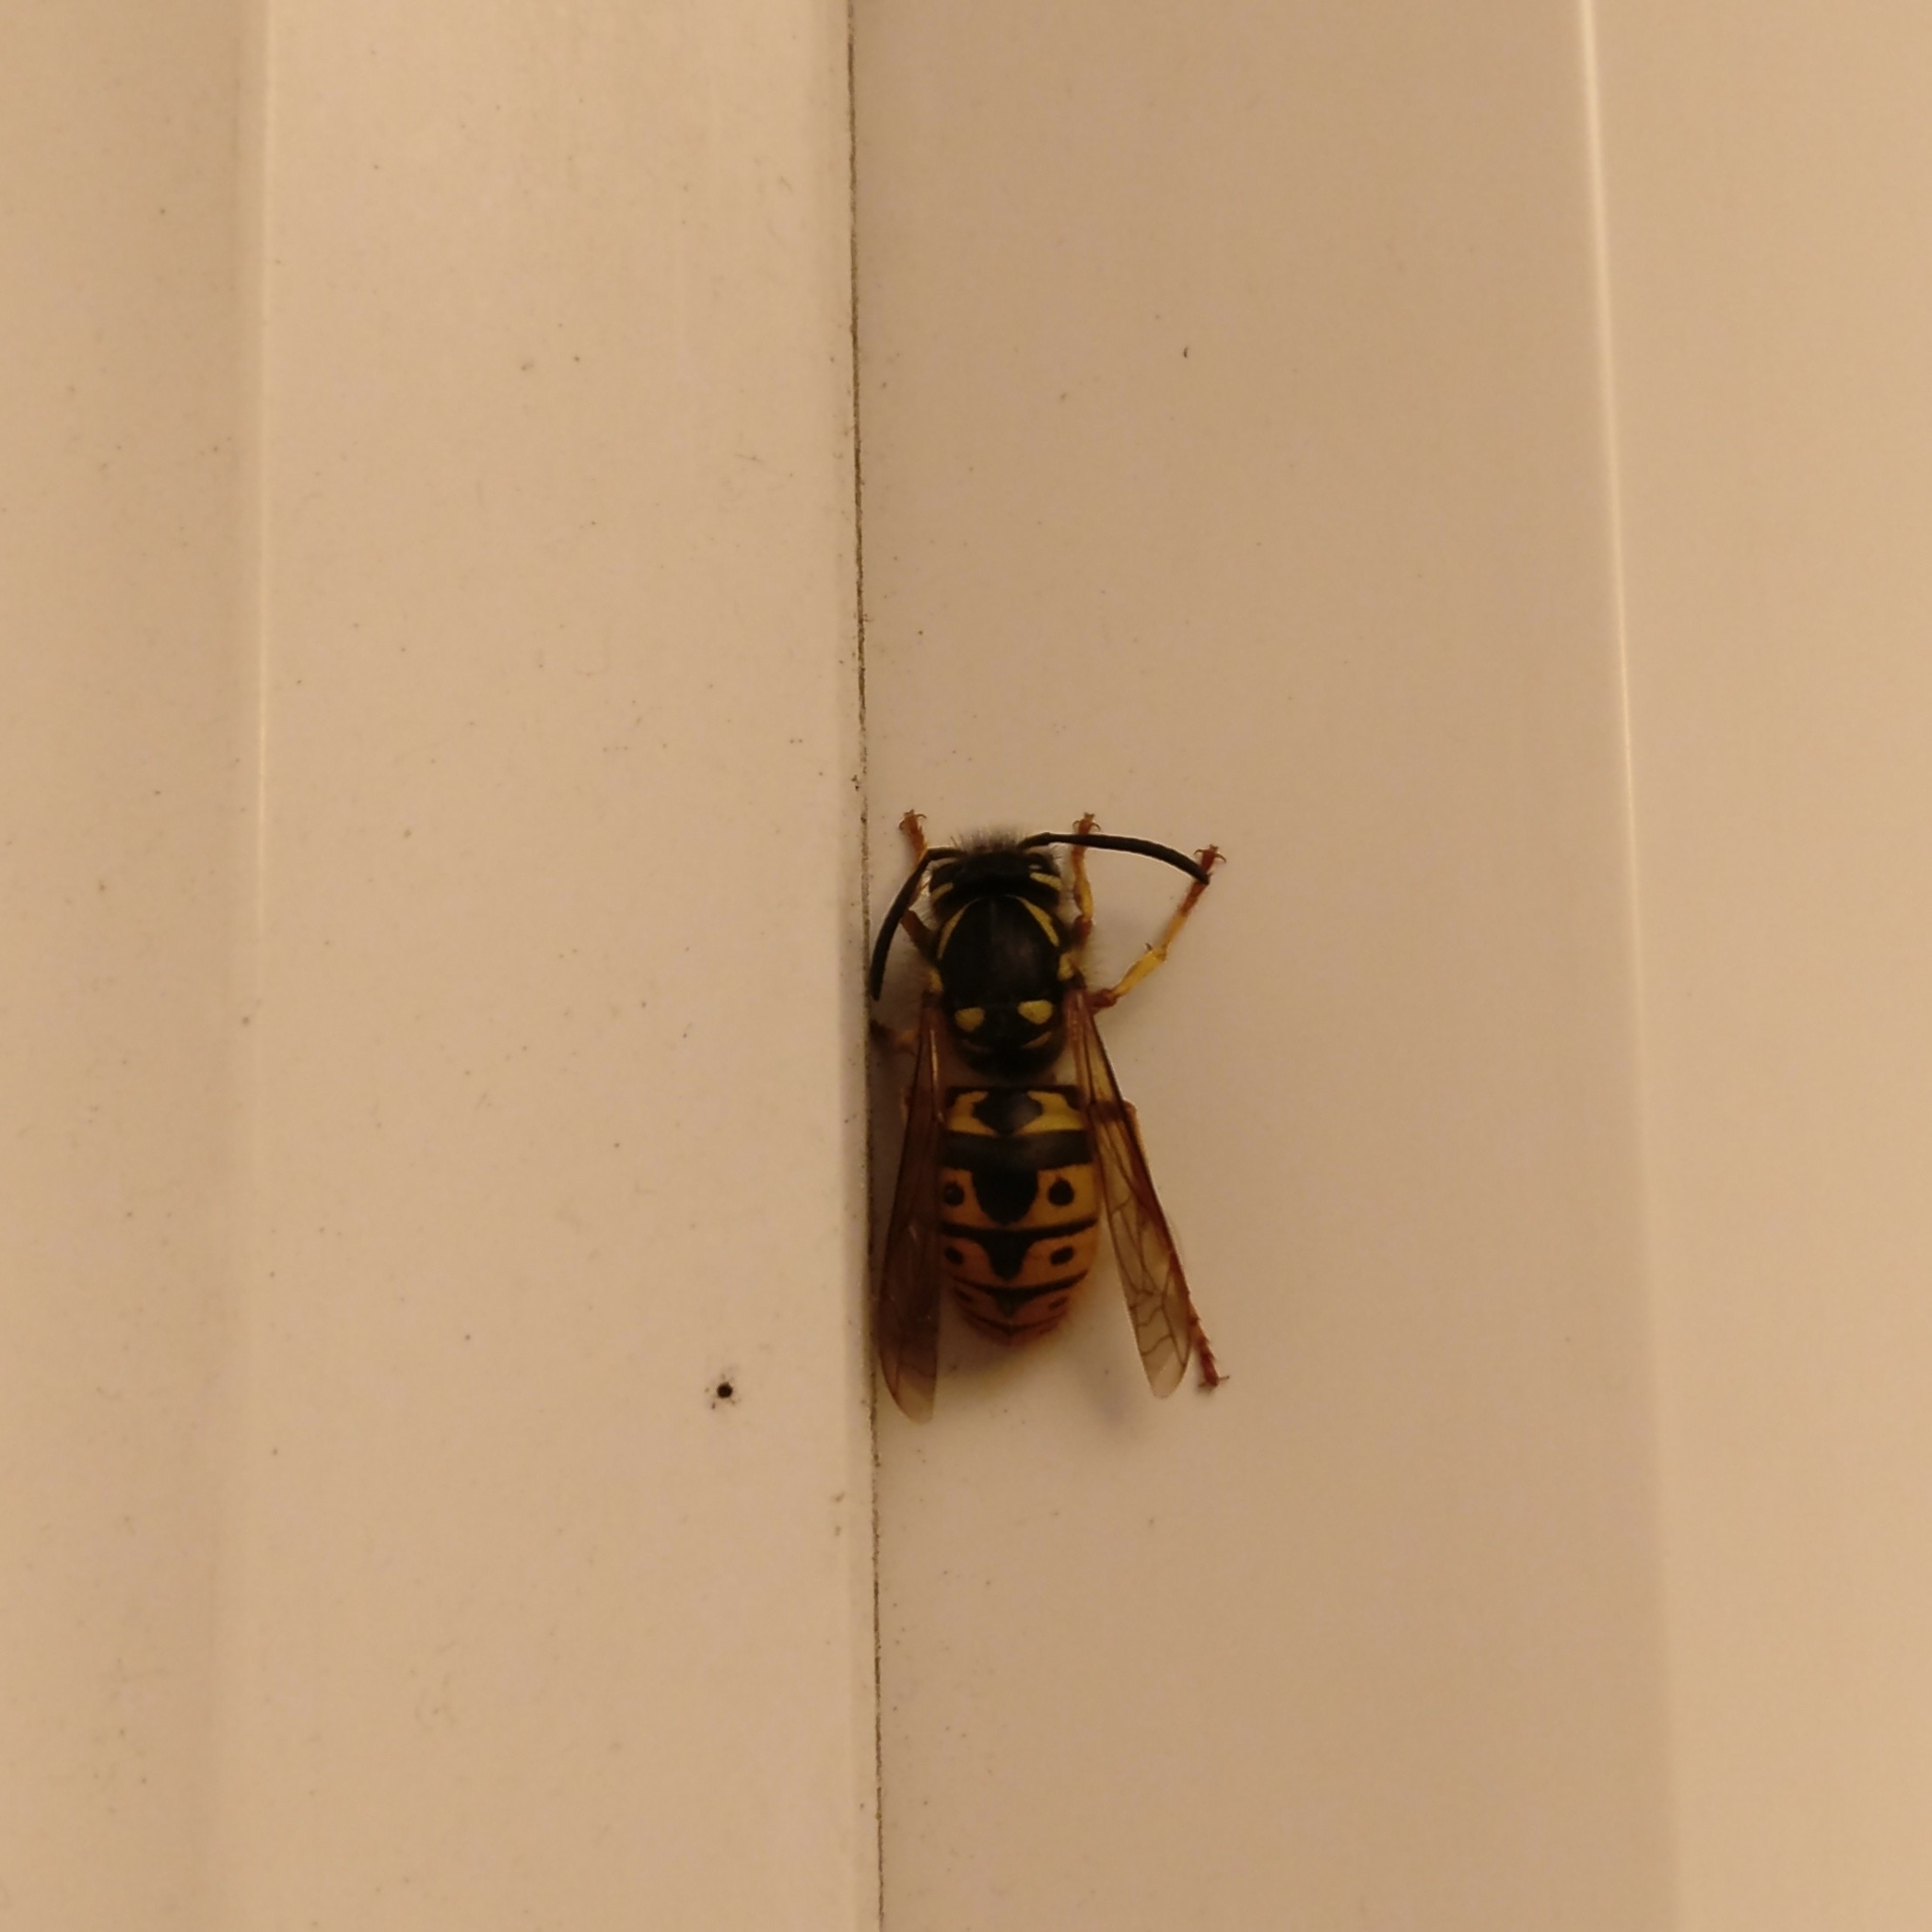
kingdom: Animalia
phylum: Arthropoda
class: Insecta
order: Hymenoptera
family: Vespidae
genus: Vespula
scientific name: Vespula germanica
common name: German wasp
